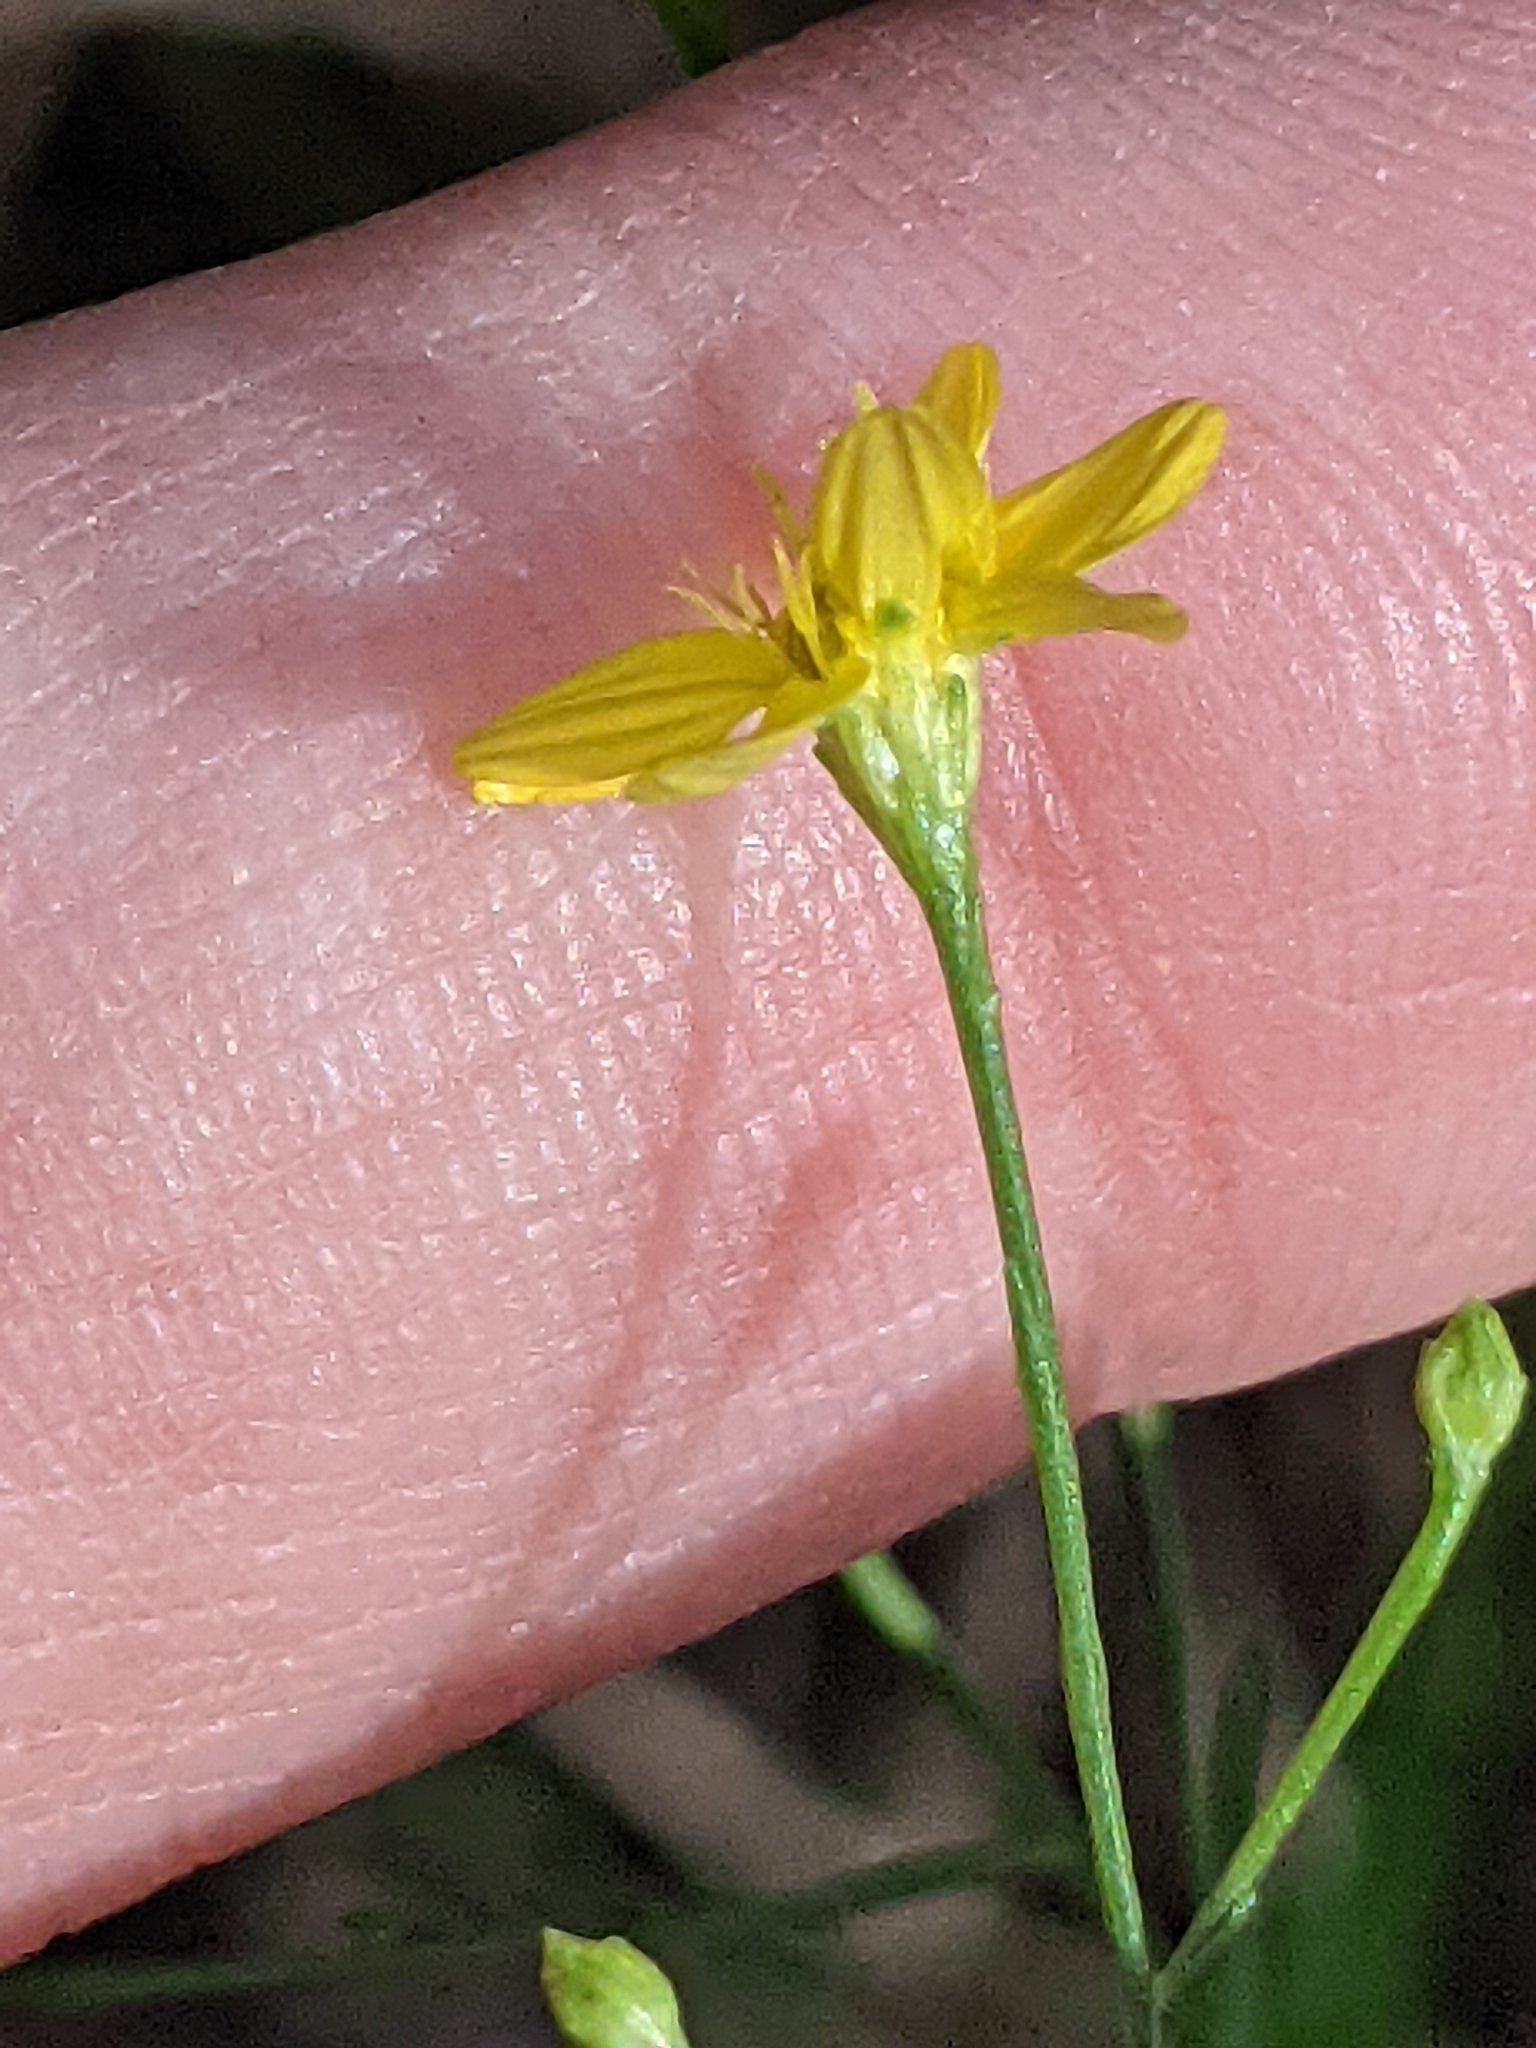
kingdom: Plantae
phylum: Tracheophyta
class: Magnoliopsida
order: Asterales
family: Asteraceae
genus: Gutierrezia
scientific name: Gutierrezia texana
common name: Texas snakeweed
